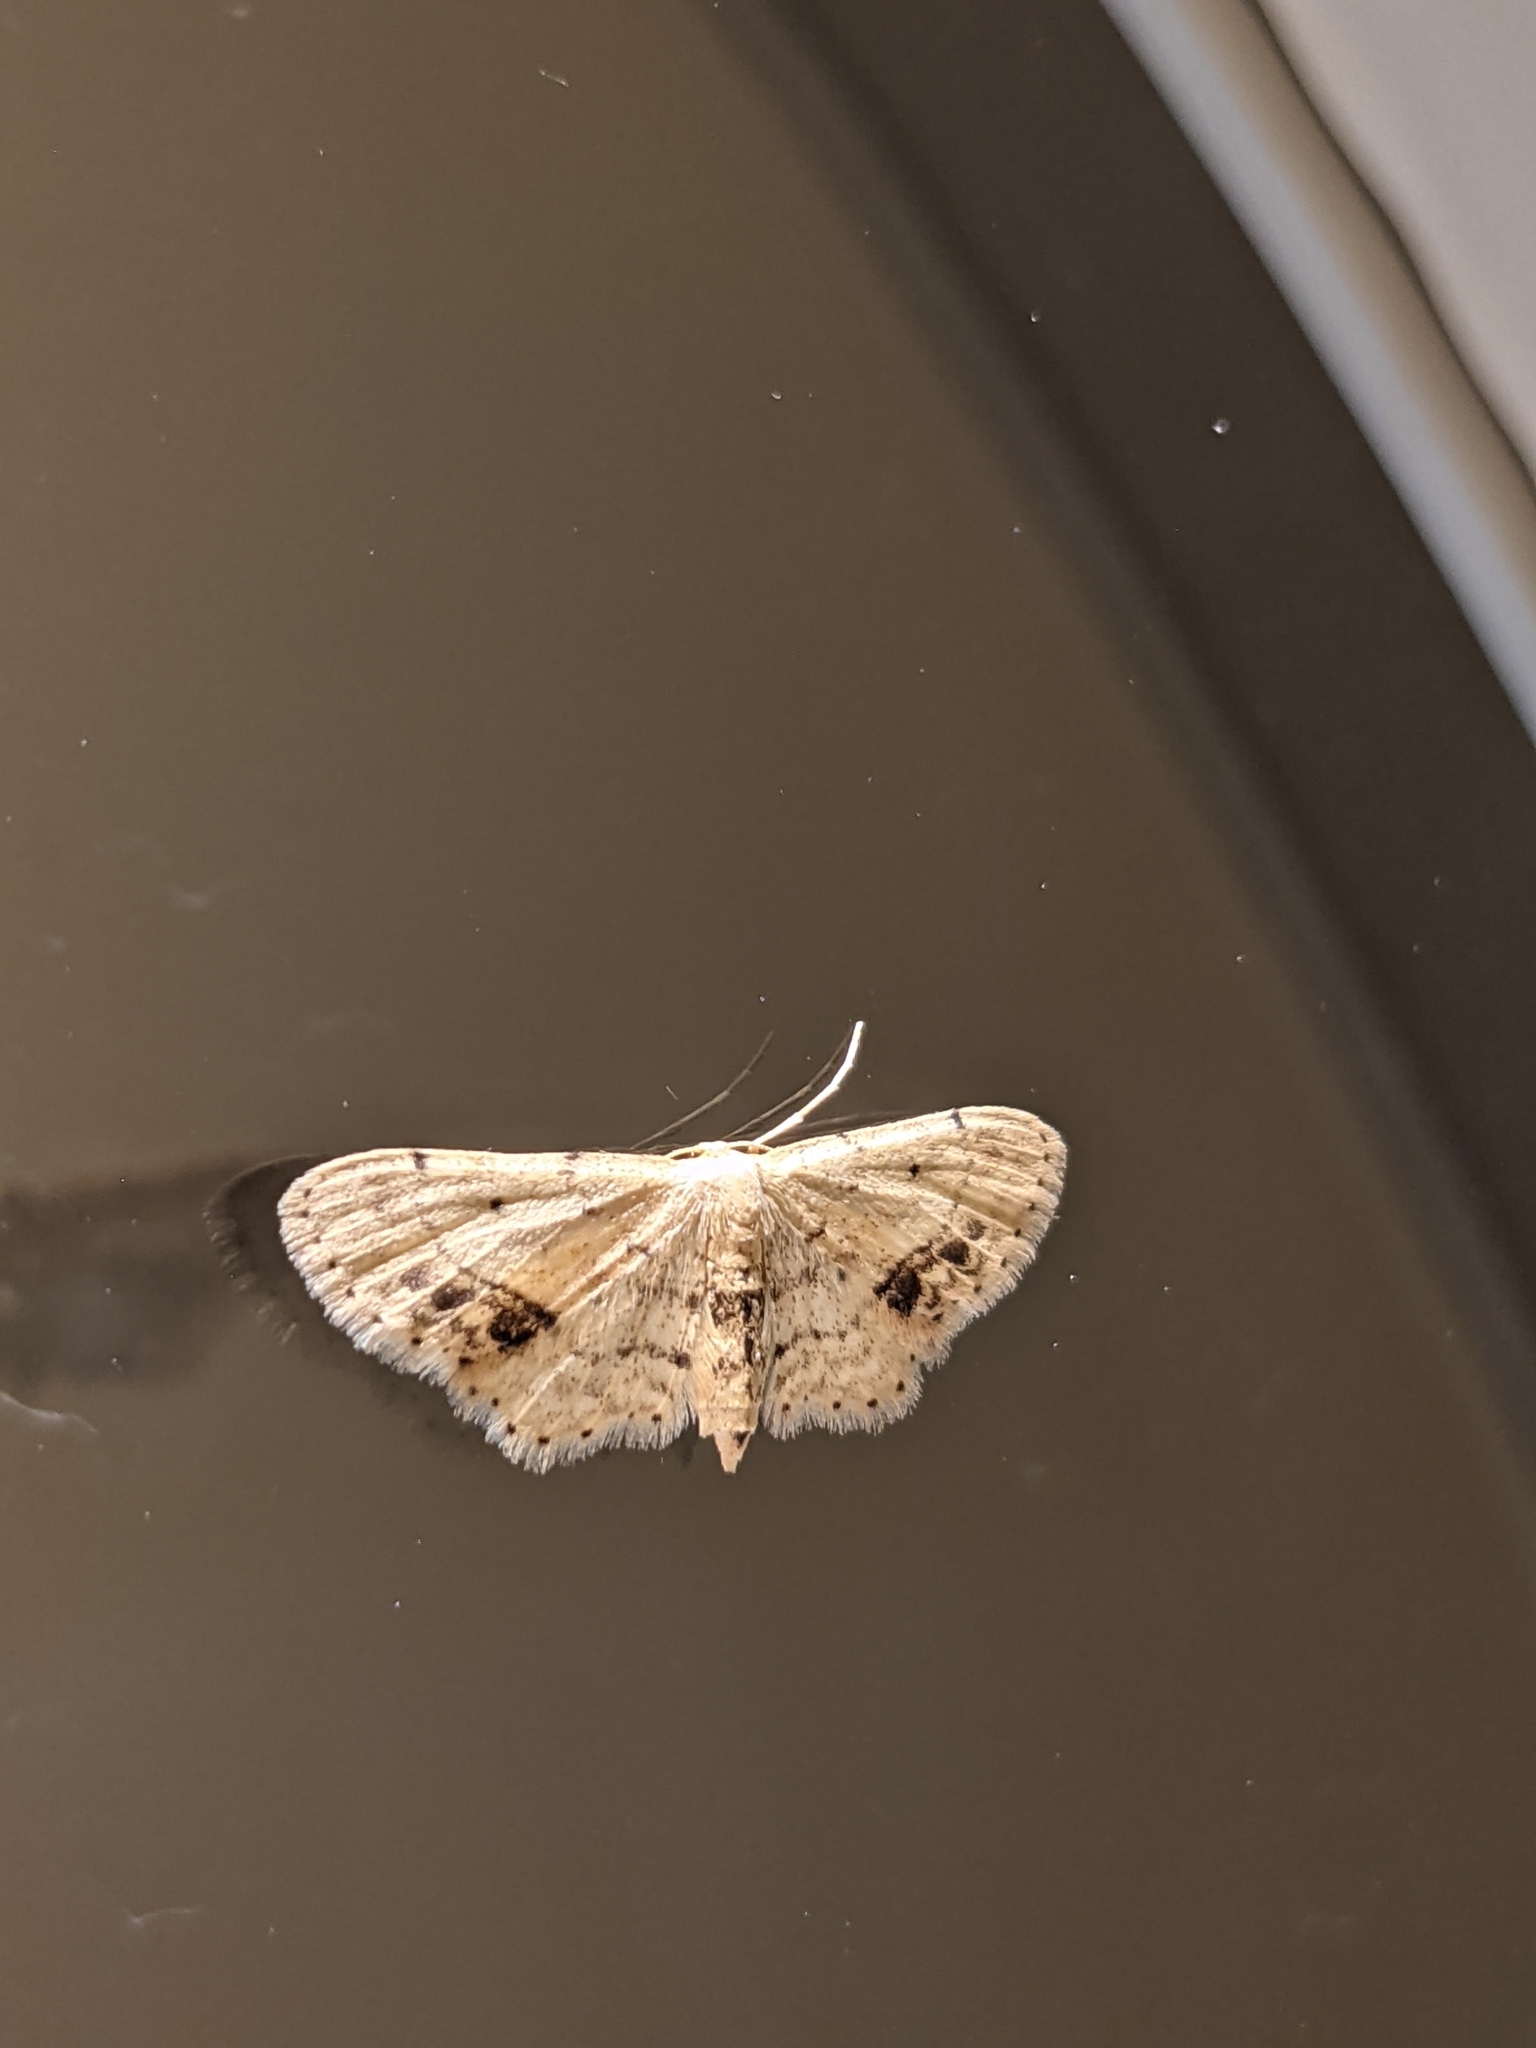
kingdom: Animalia
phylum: Arthropoda
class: Insecta
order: Lepidoptera
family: Geometridae
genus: Idaea
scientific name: Idaea dimidiata
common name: Single-dotted wave
